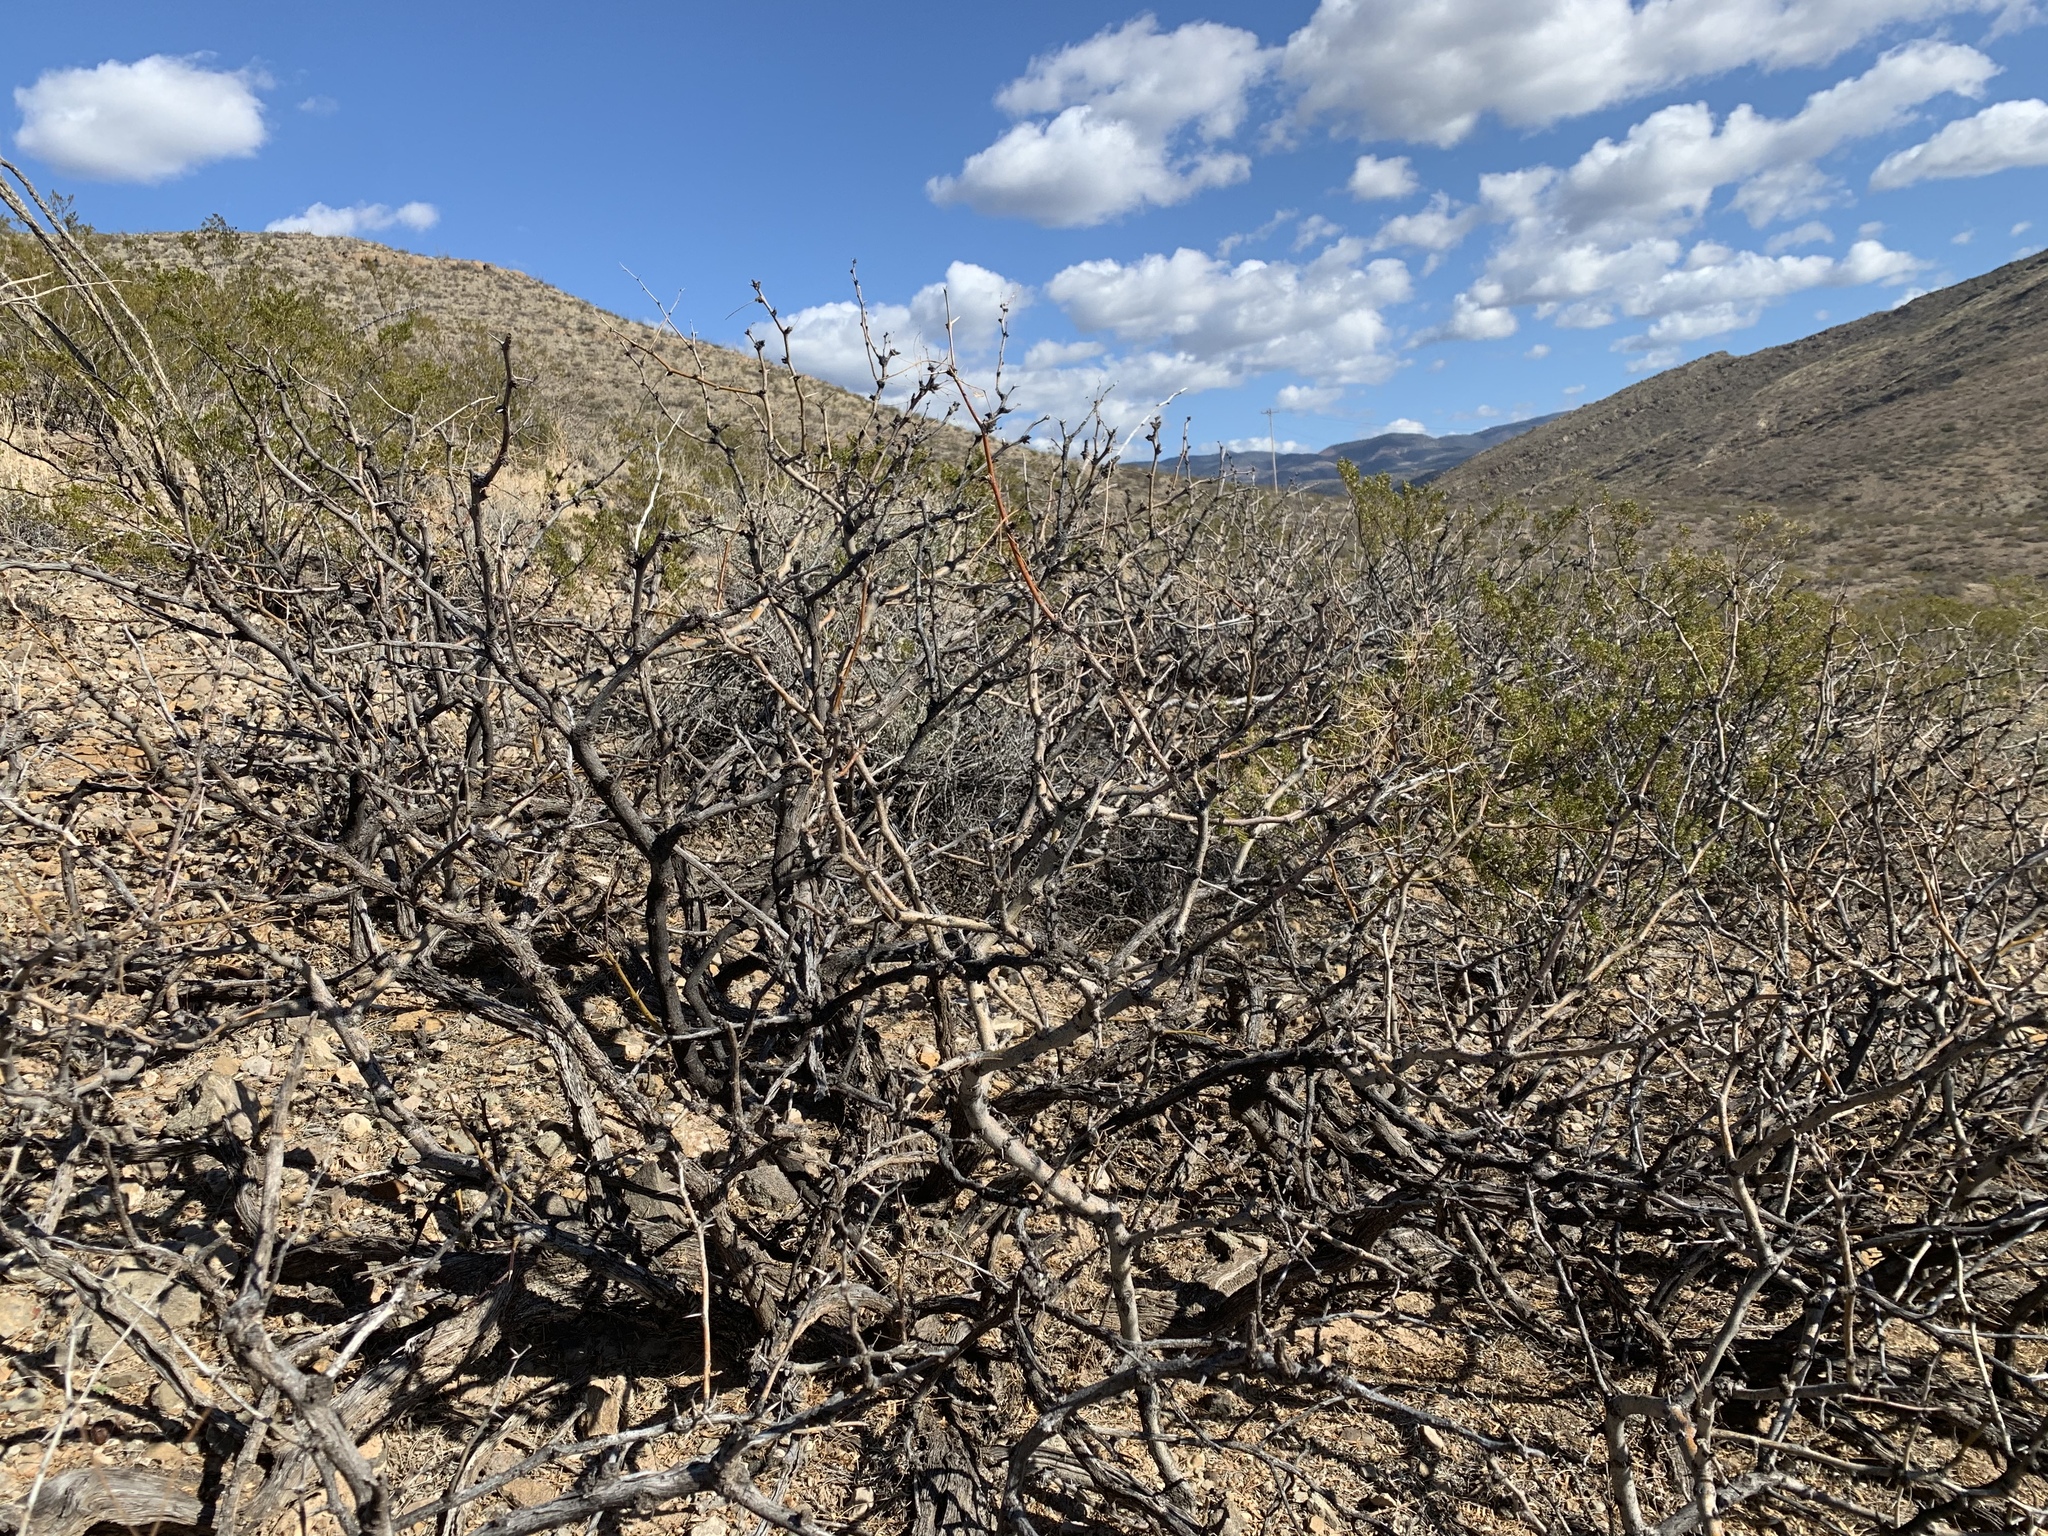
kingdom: Plantae
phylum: Tracheophyta
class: Magnoliopsida
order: Fabales
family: Fabaceae
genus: Prosopis
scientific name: Prosopis glandulosa
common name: Honey mesquite
